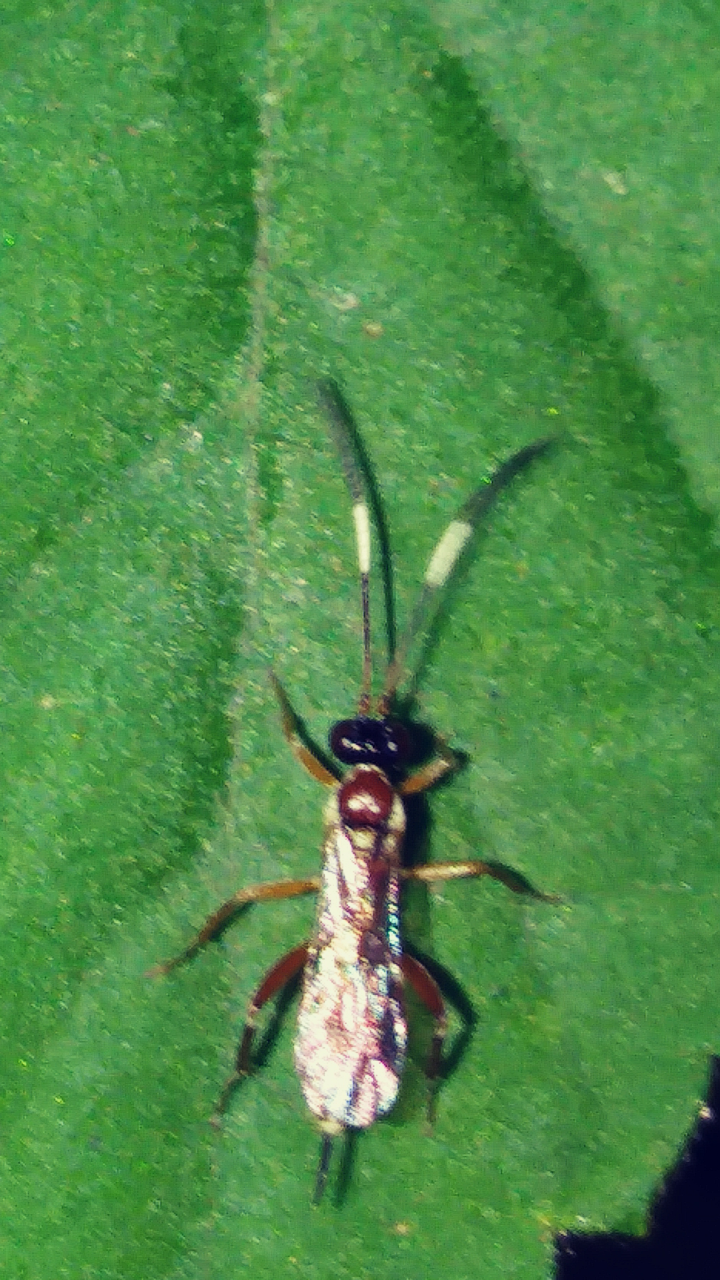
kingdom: Animalia
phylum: Arthropoda
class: Insecta
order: Hymenoptera
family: Ichneumonidae
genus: Ischnus
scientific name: Ischnus cinctipes
